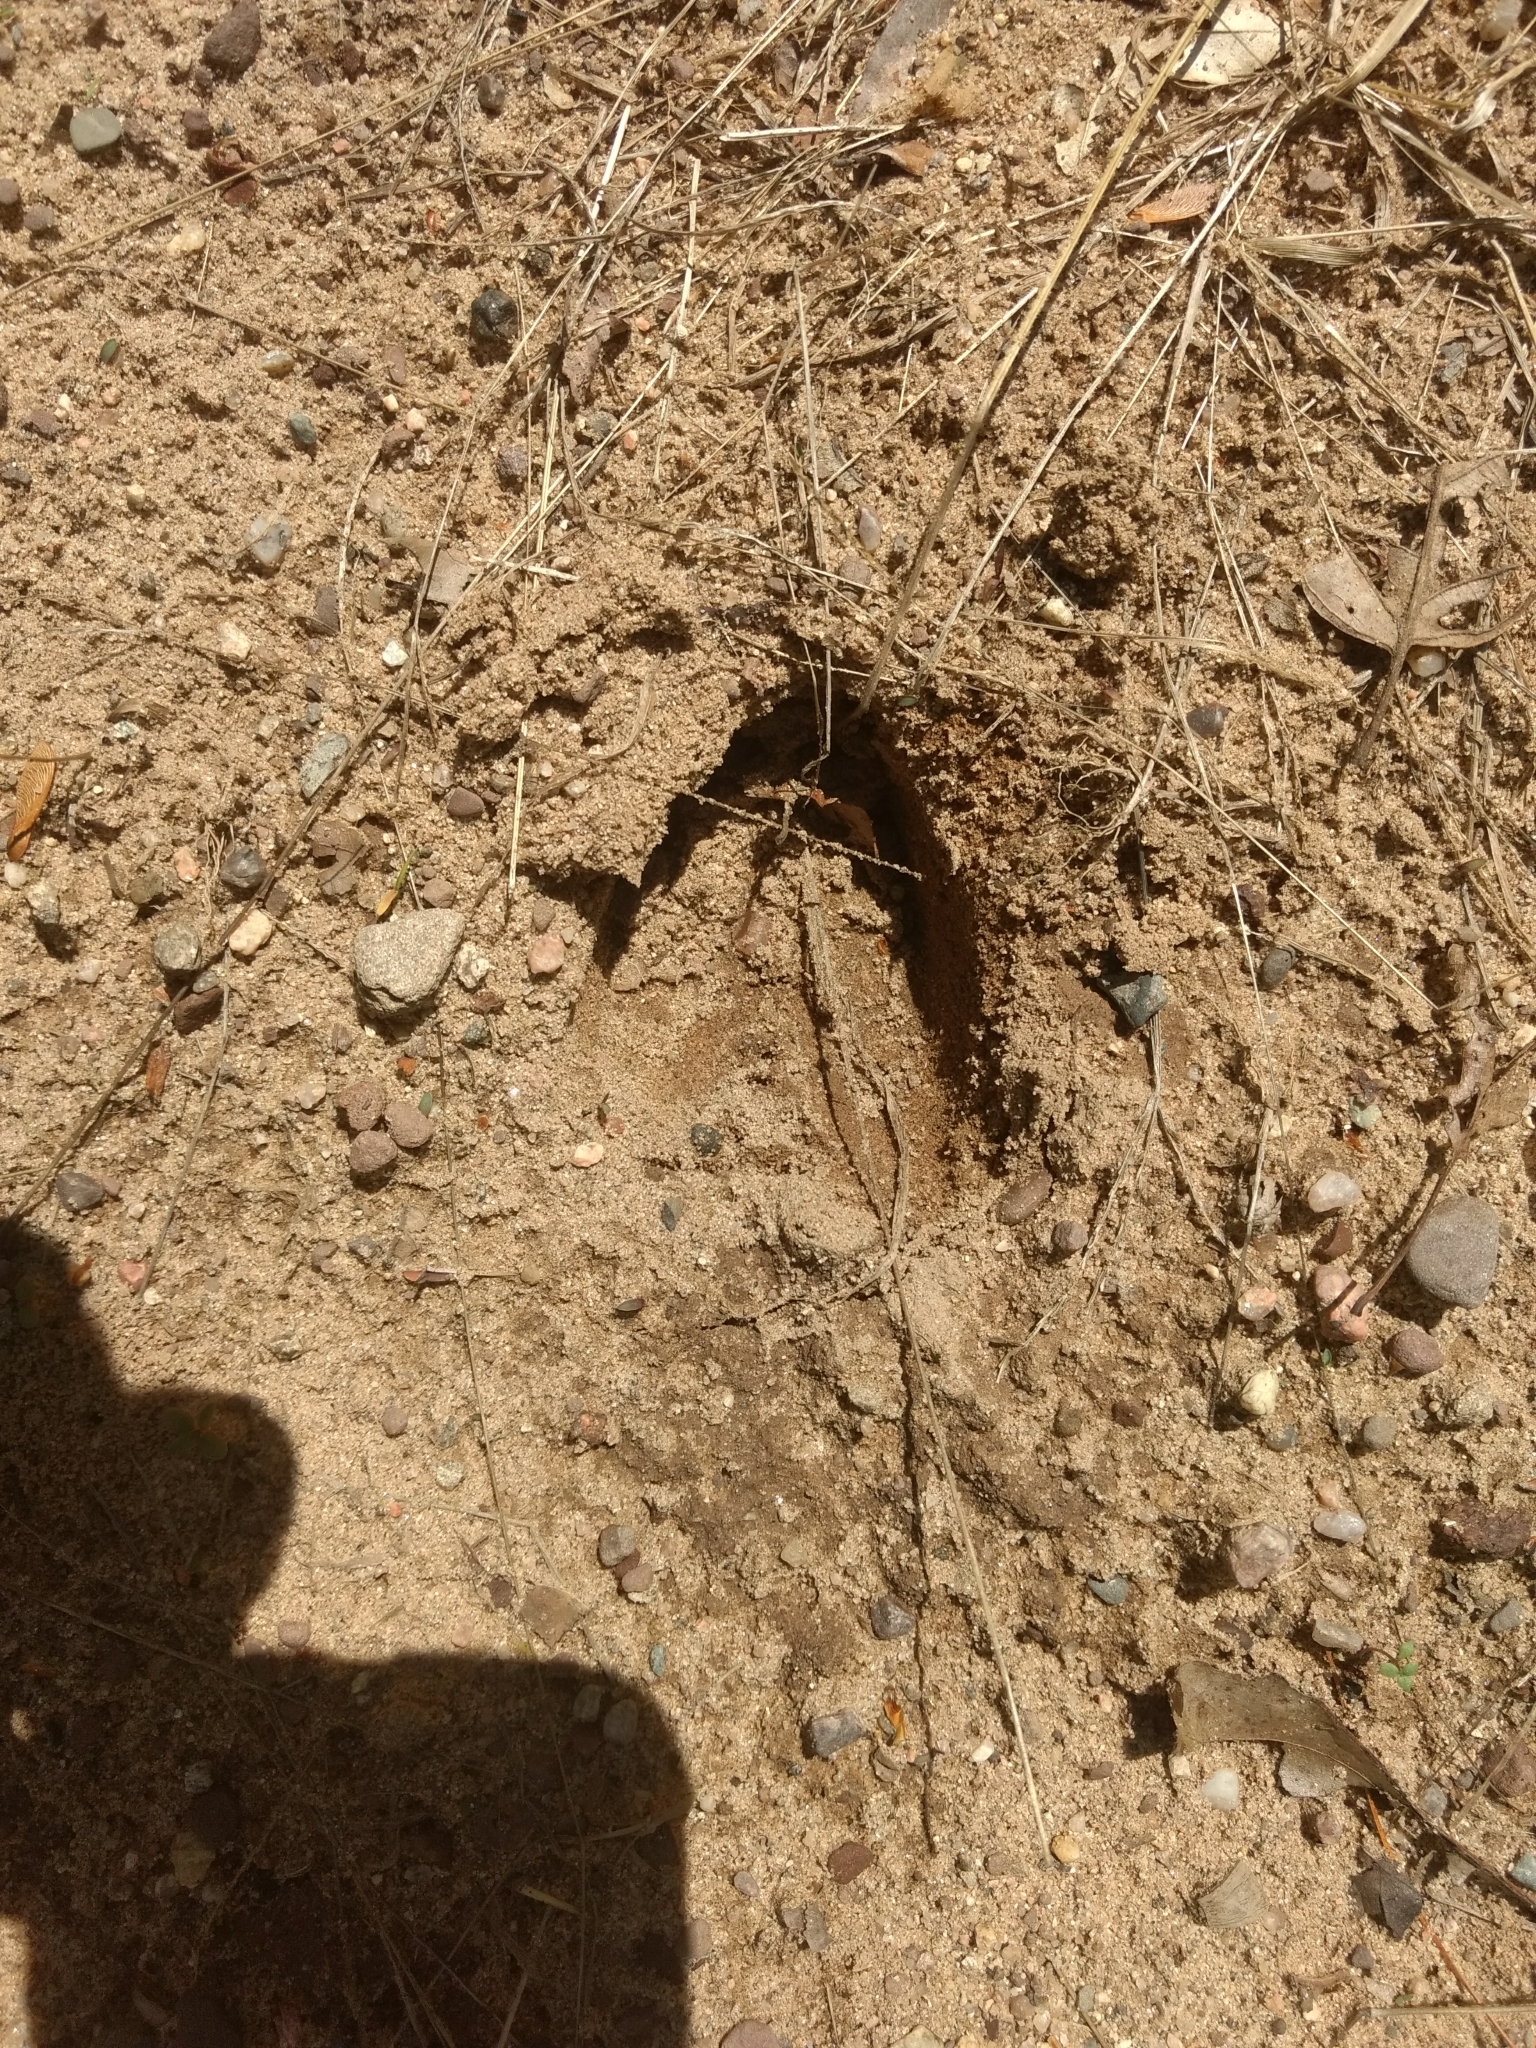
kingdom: Animalia
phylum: Chordata
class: Mammalia
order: Artiodactyla
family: Cervidae
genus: Odocoileus
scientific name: Odocoileus virginianus
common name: White-tailed deer
